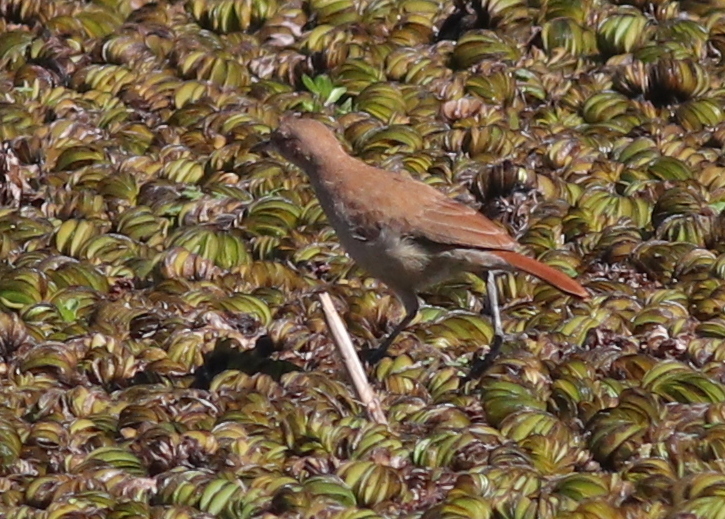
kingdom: Animalia
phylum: Chordata
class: Aves
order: Passeriformes
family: Furnariidae
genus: Furnarius
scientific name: Furnarius rufus
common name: Rufous hornero
